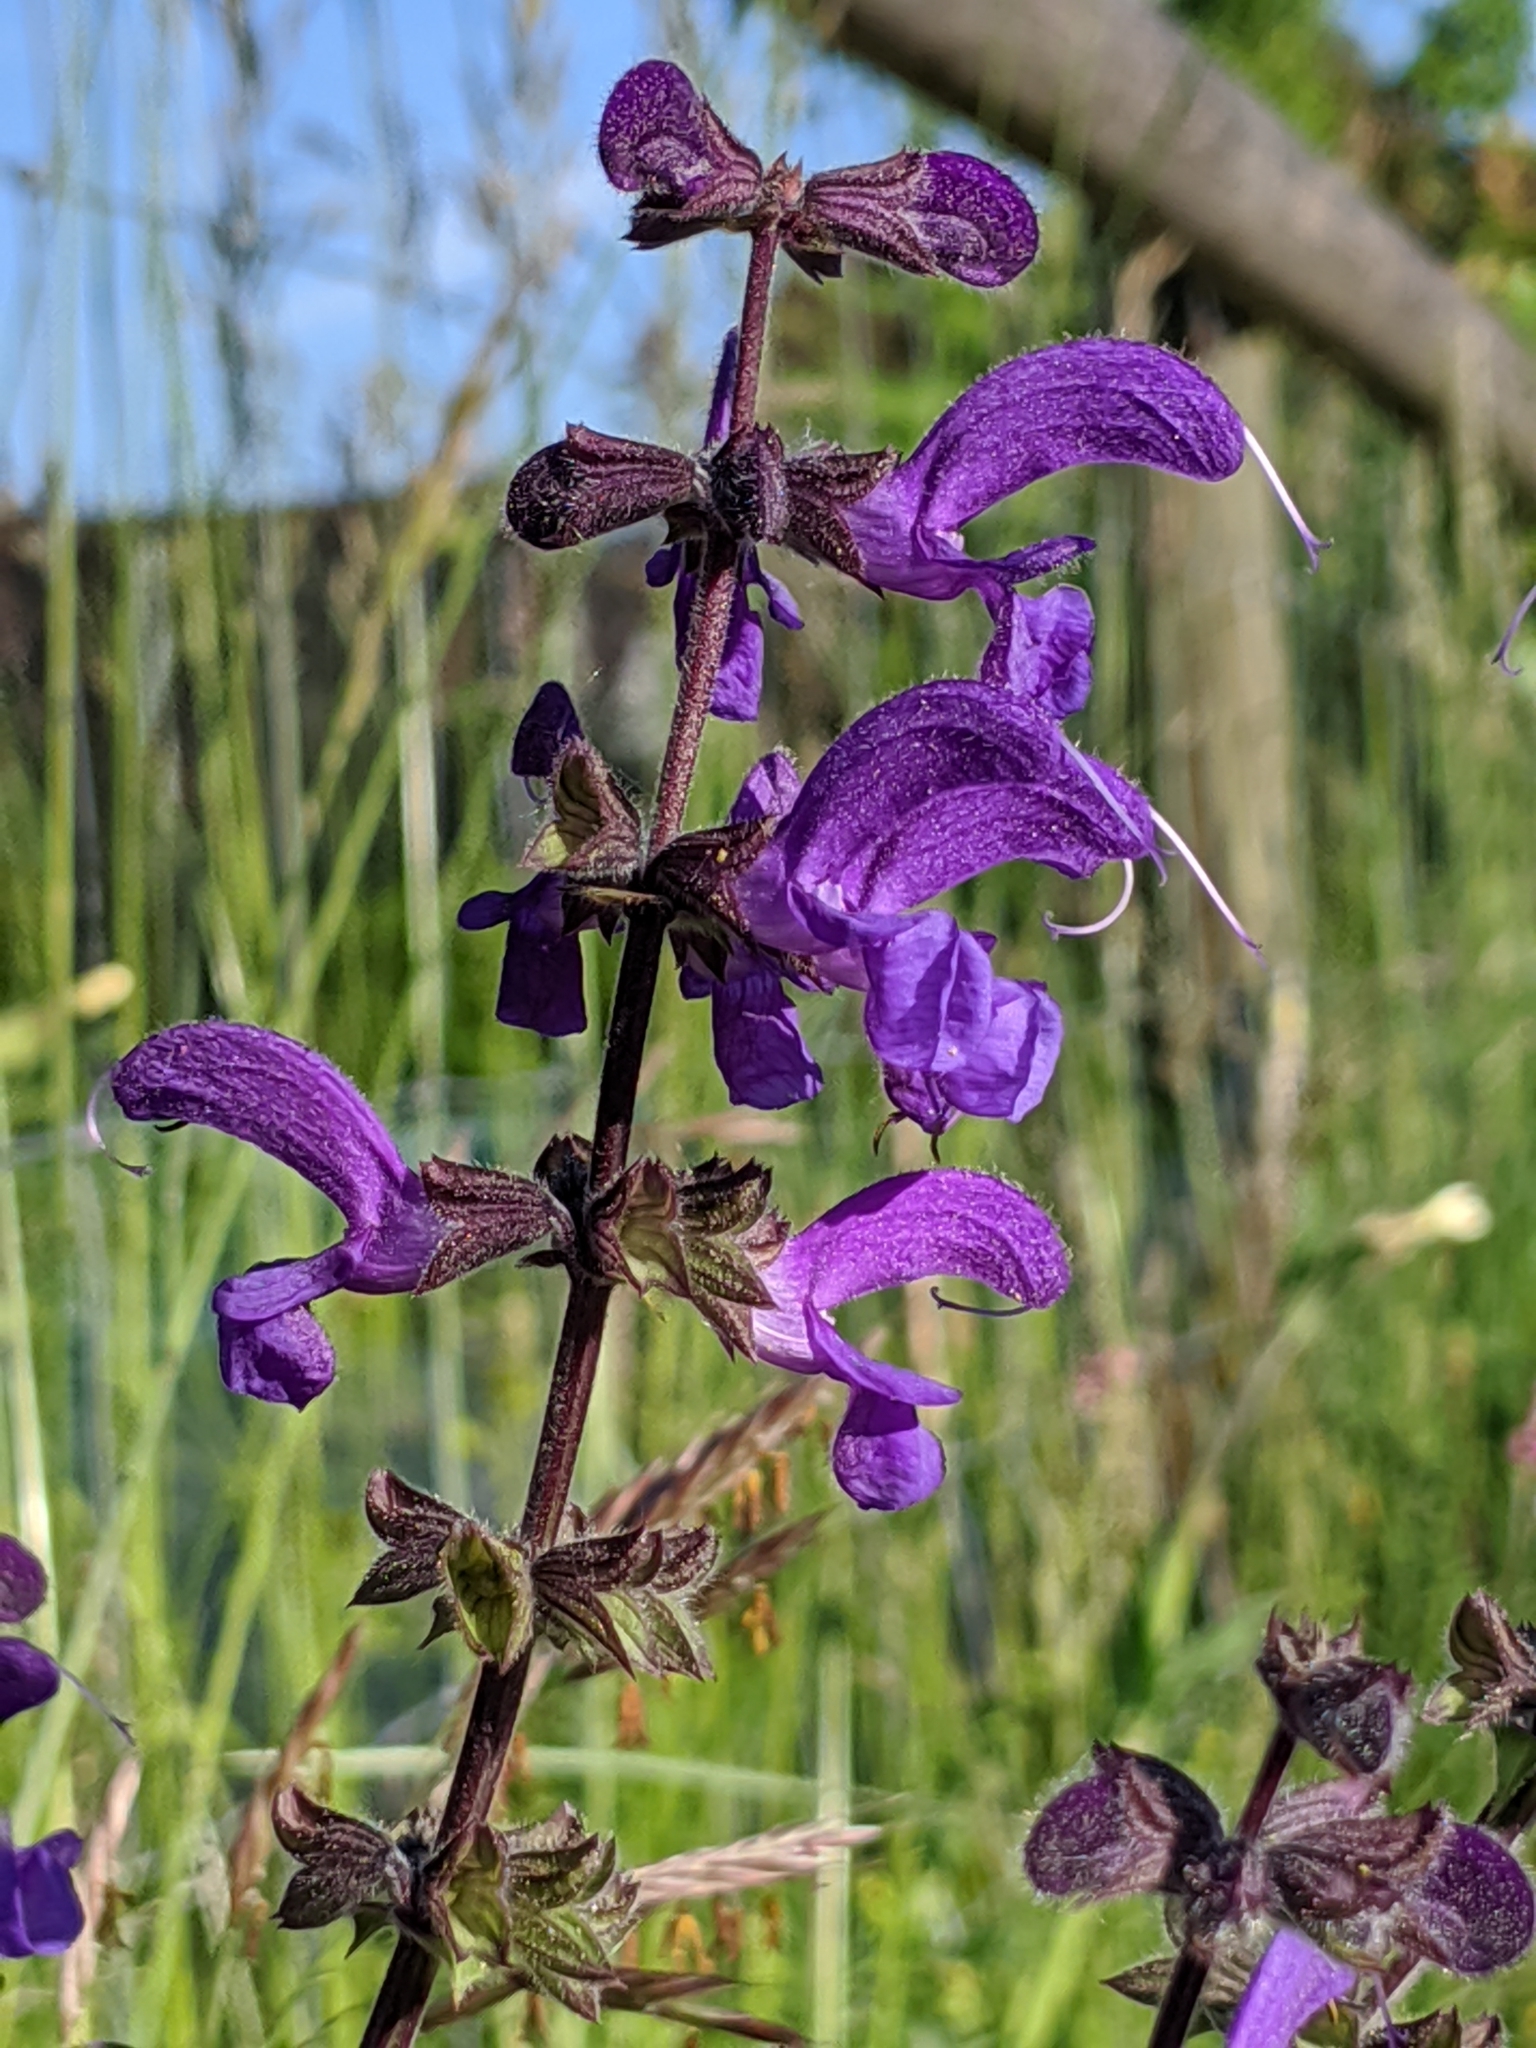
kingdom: Plantae
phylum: Tracheophyta
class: Magnoliopsida
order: Lamiales
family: Lamiaceae
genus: Salvia
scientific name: Salvia pratensis
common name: Meadow sage
